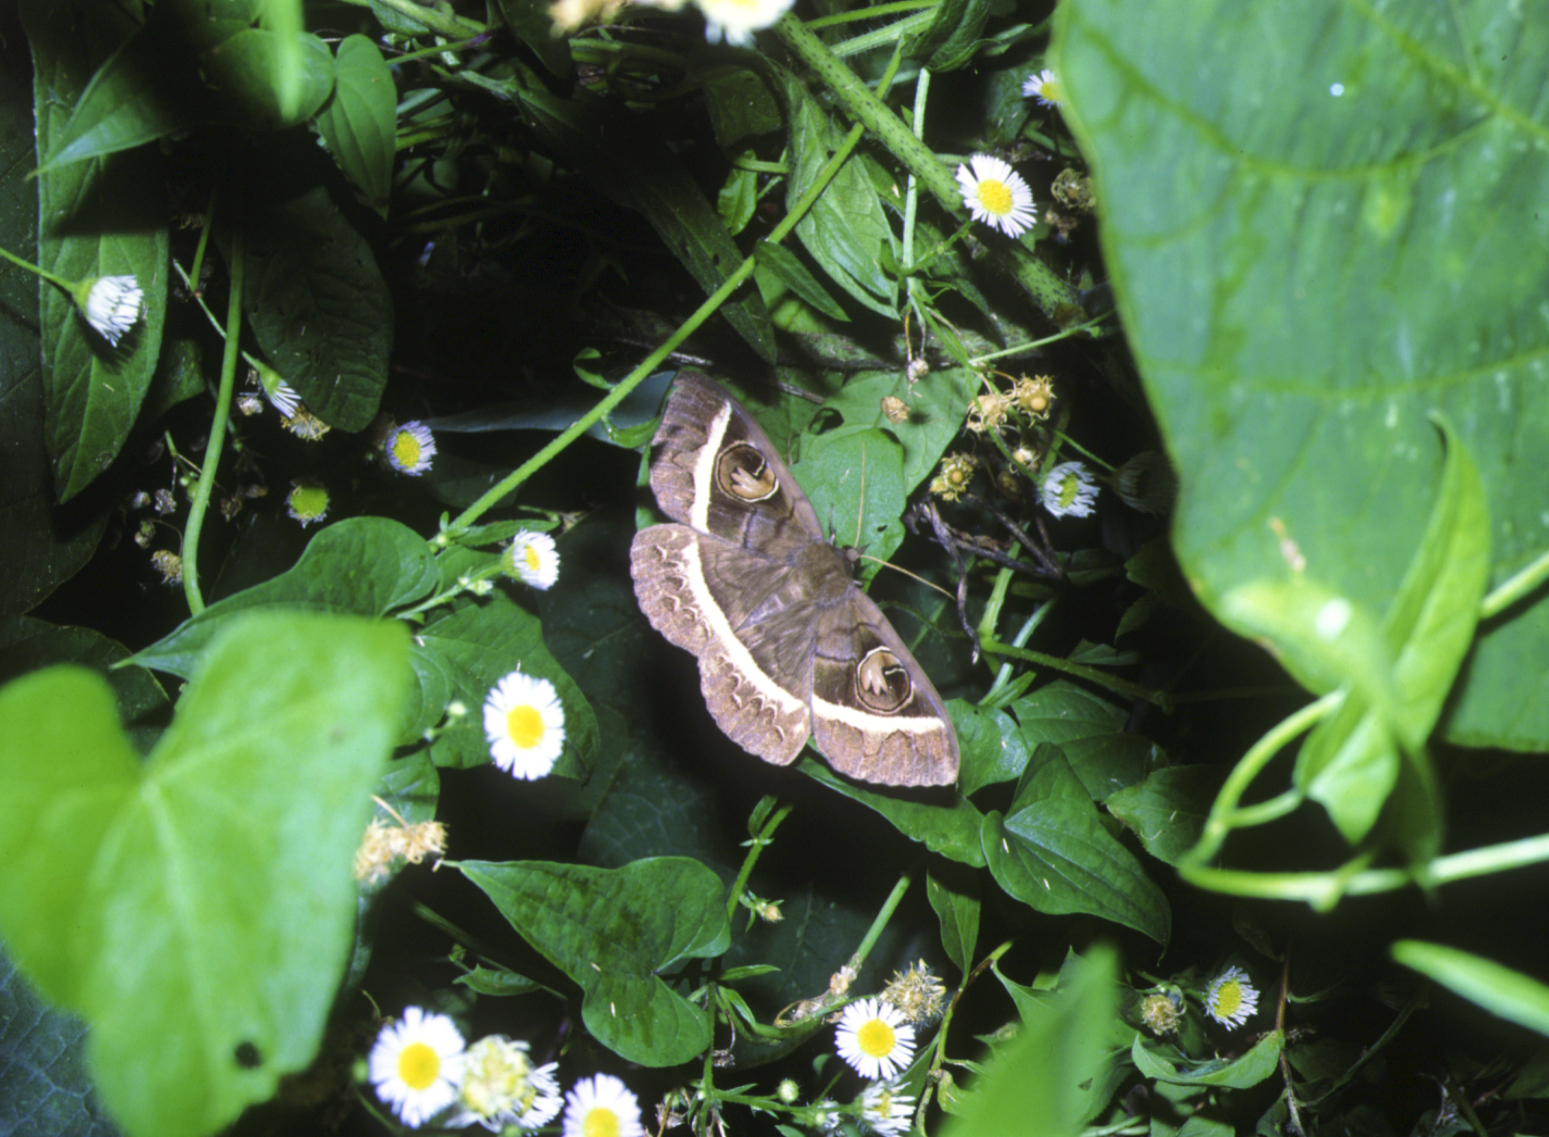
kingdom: Animalia
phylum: Arthropoda
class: Insecta
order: Lepidoptera
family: Erebidae
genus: Metopta
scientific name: Metopta rectifasciata
